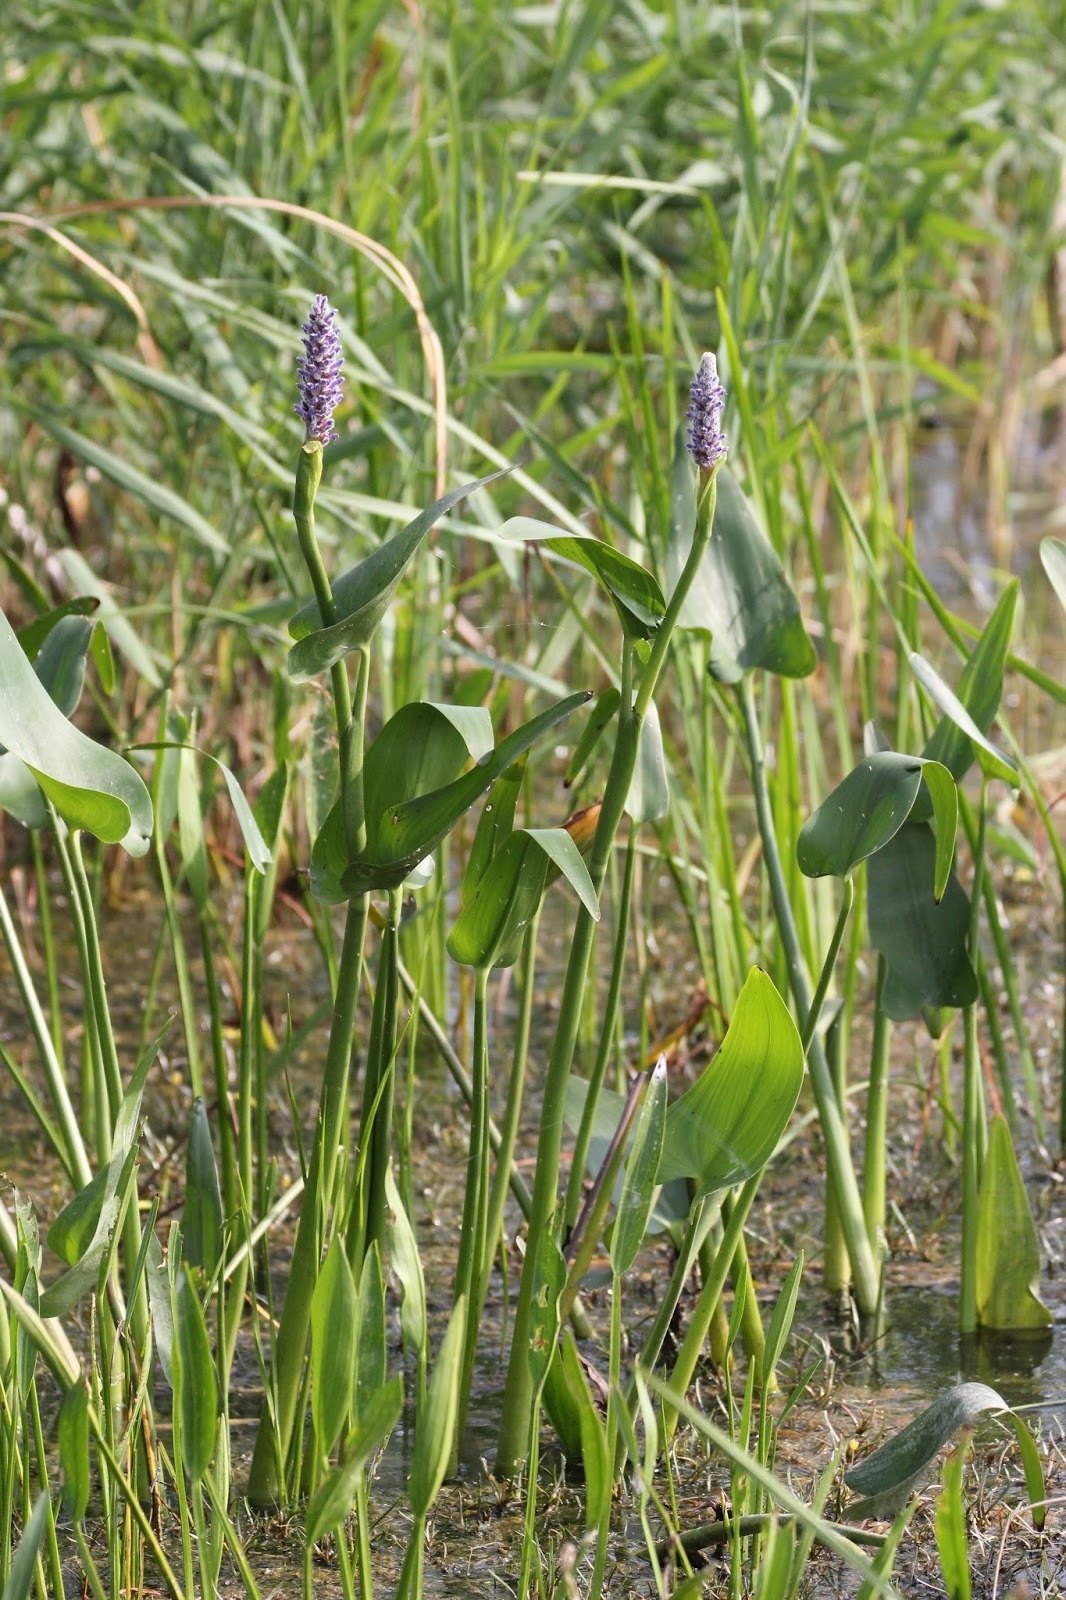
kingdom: Plantae
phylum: Tracheophyta
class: Liliopsida
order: Commelinales
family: Pontederiaceae
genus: Pontederia
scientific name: Pontederia cordata
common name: Pickerelweed
